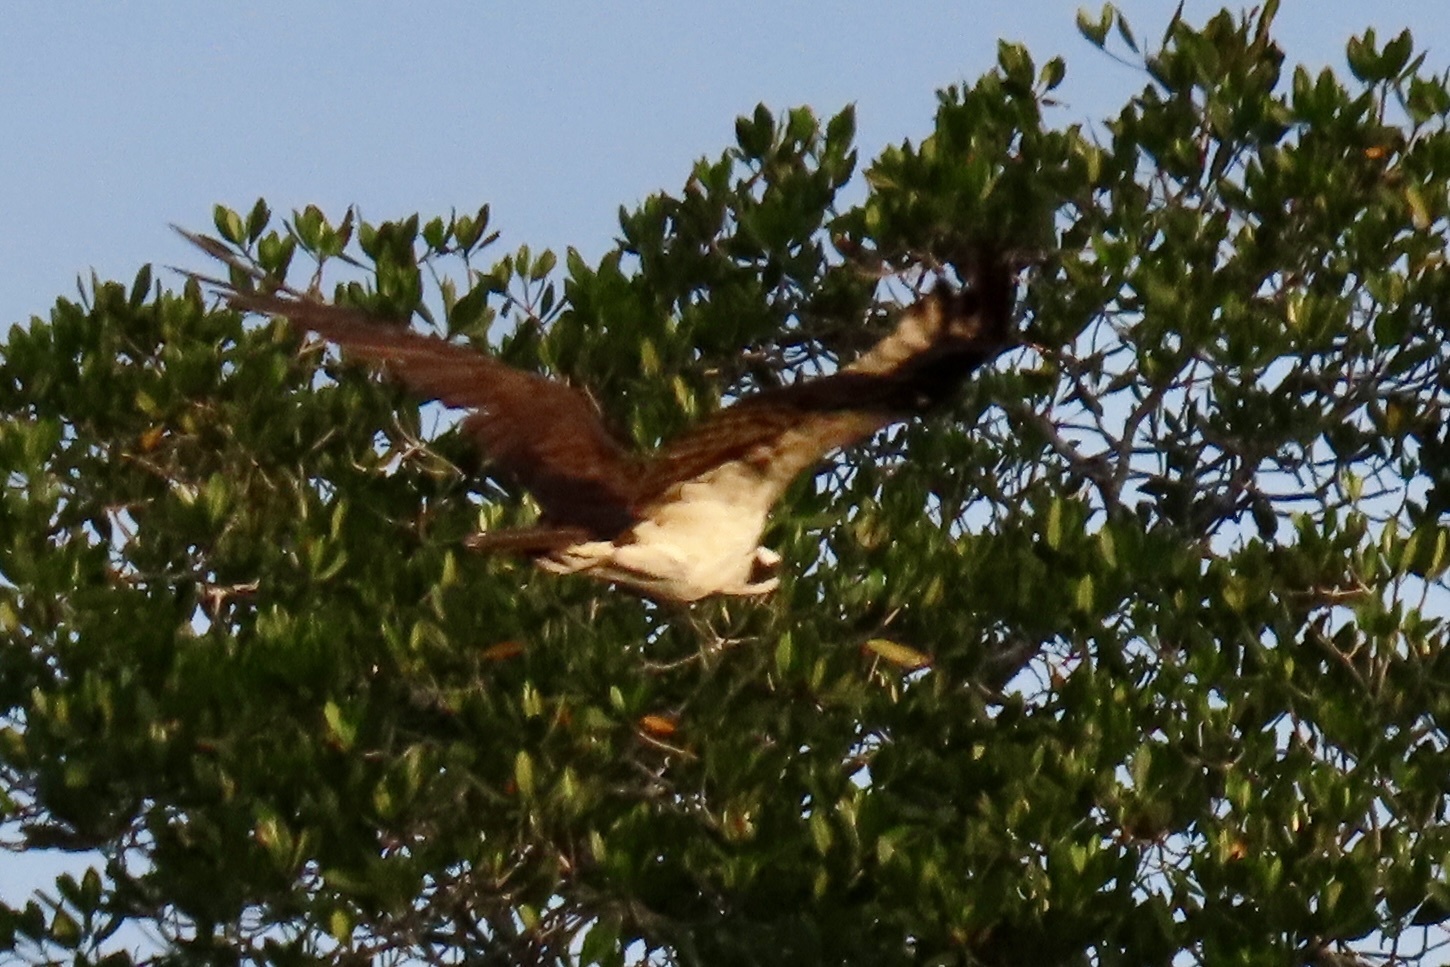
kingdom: Animalia
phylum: Chordata
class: Aves
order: Accipitriformes
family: Pandionidae
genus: Pandion
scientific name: Pandion haliaetus
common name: Osprey
